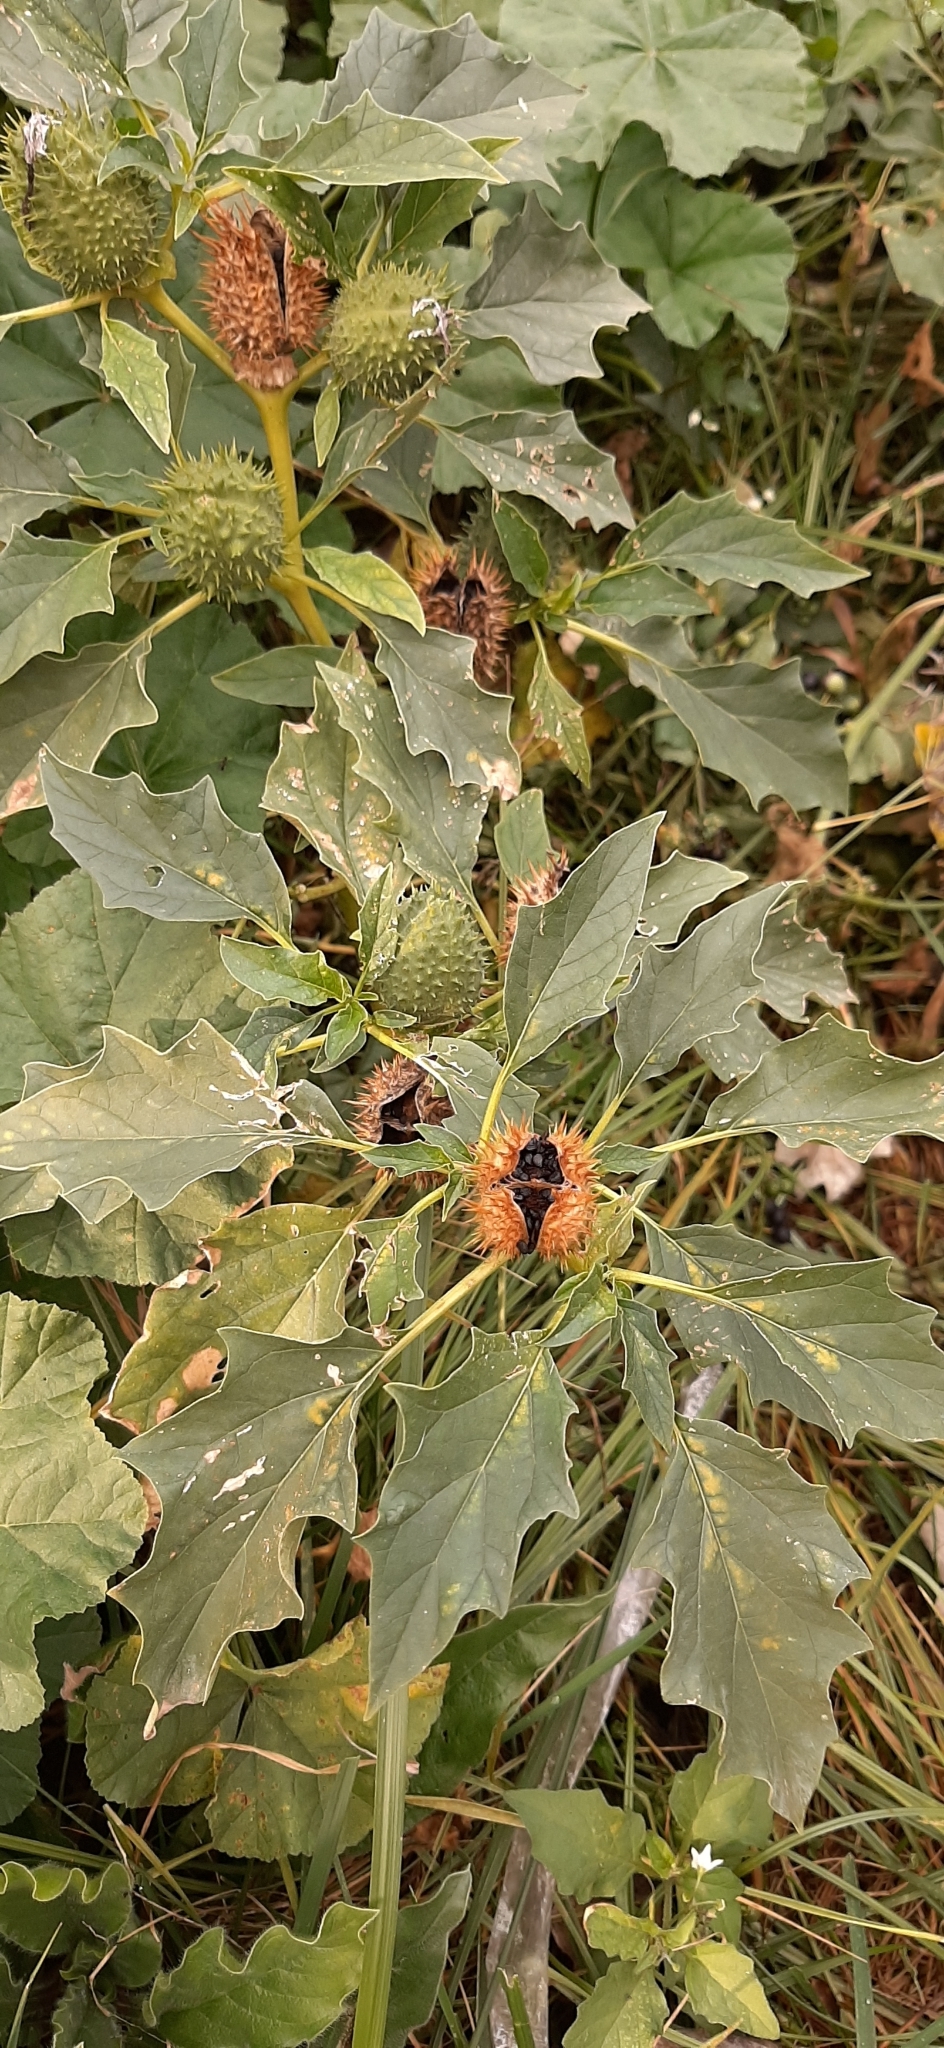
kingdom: Plantae
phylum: Tracheophyta
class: Magnoliopsida
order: Solanales
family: Solanaceae
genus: Datura
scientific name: Datura stramonium
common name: Thorn-apple
